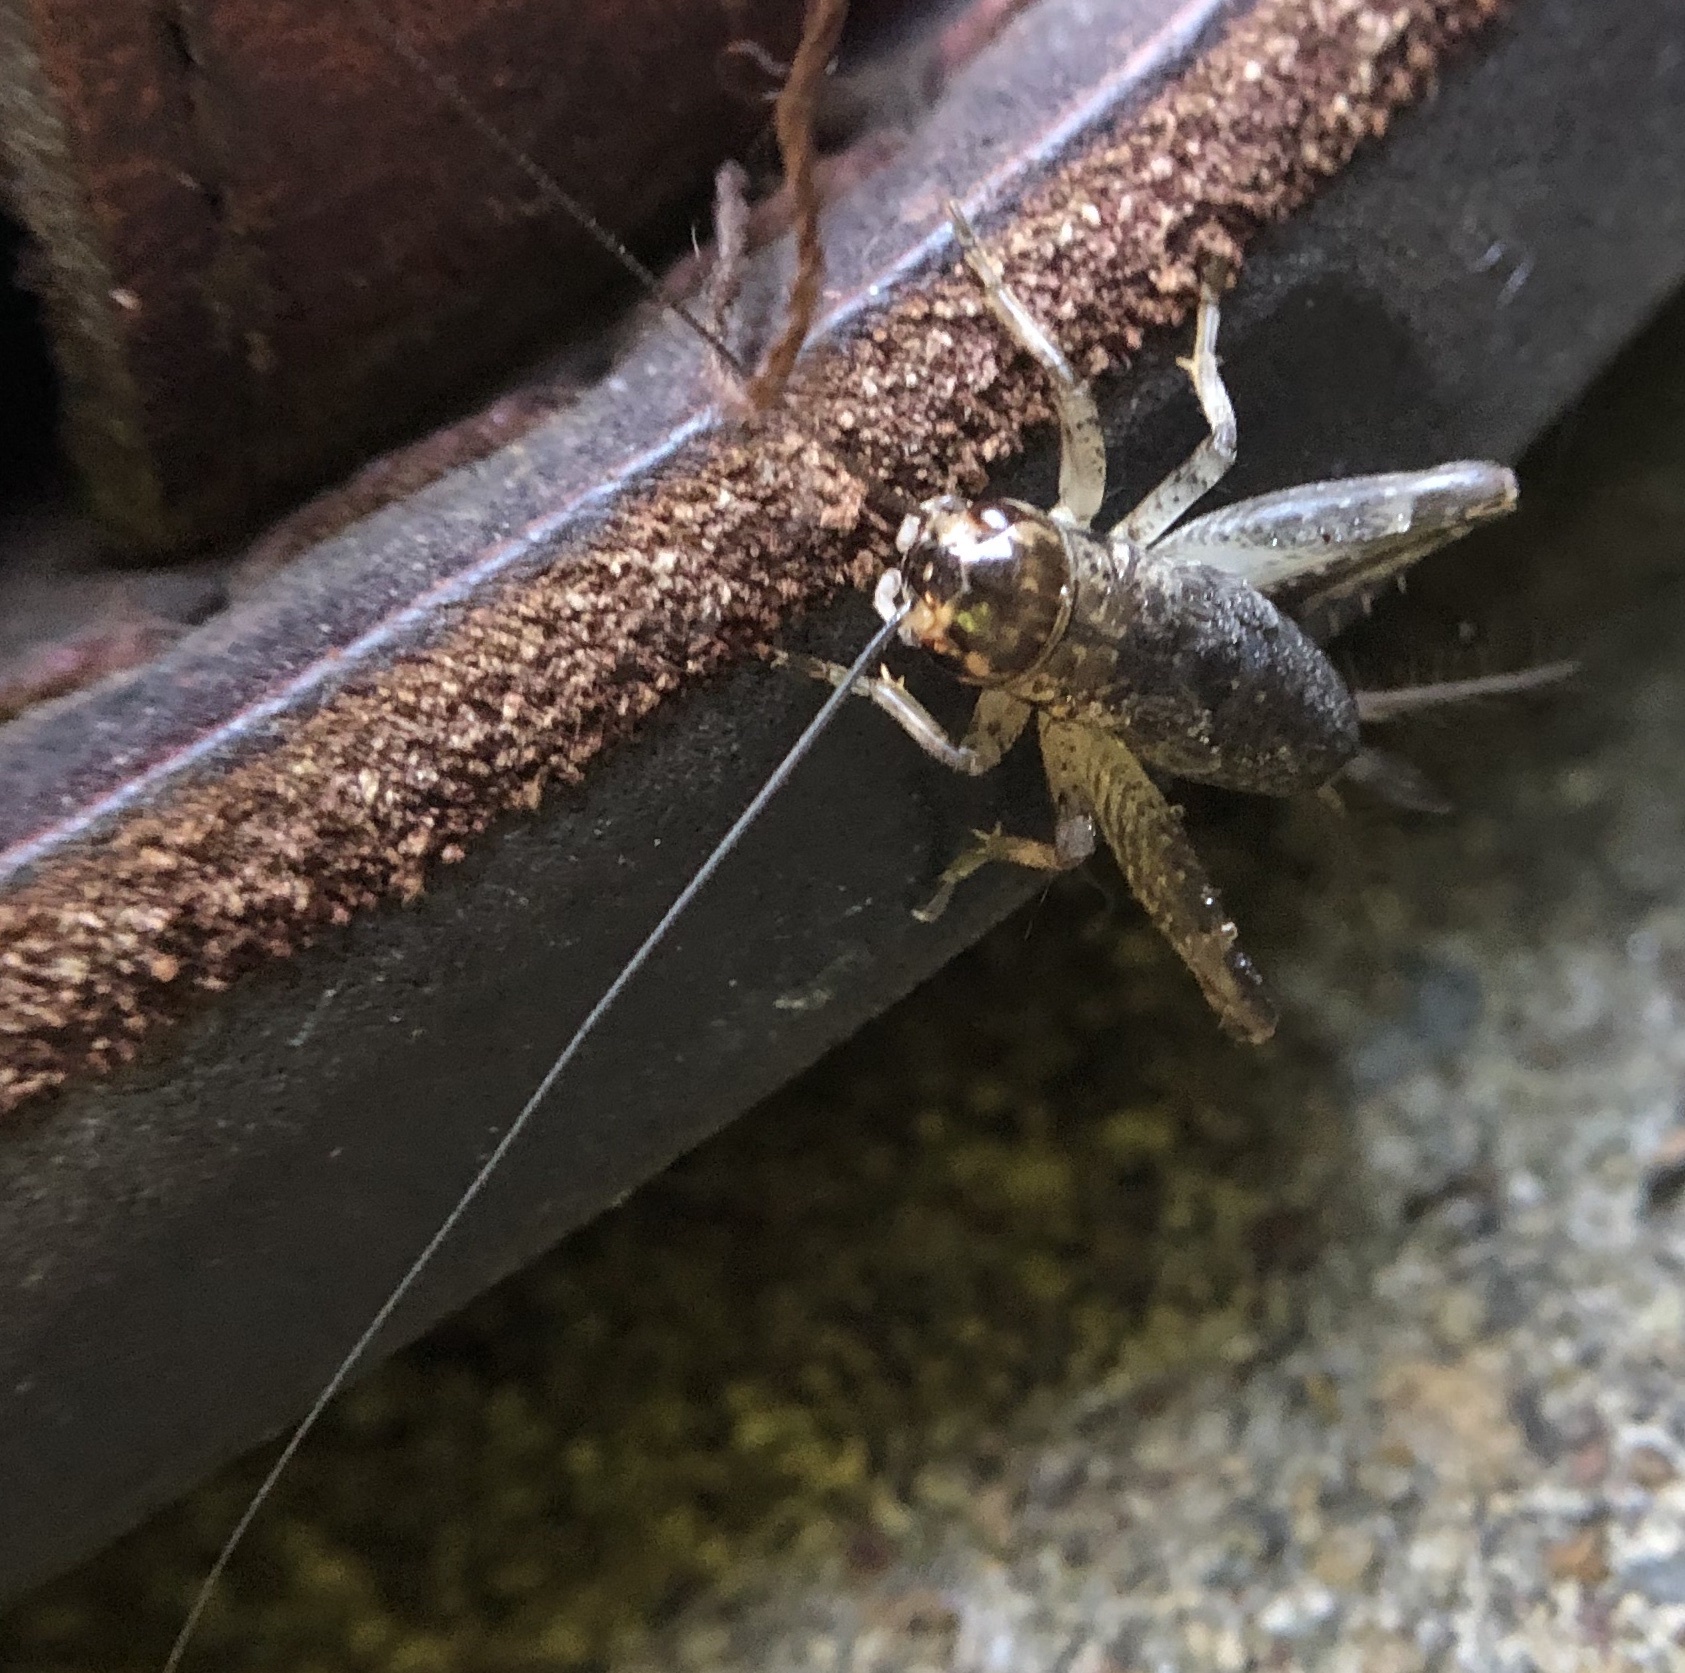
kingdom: Animalia
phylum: Arthropoda
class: Insecta
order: Orthoptera
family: Gryllidae
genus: Velarifictorus
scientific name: Velarifictorus micado
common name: Japanese burrowing cricket
